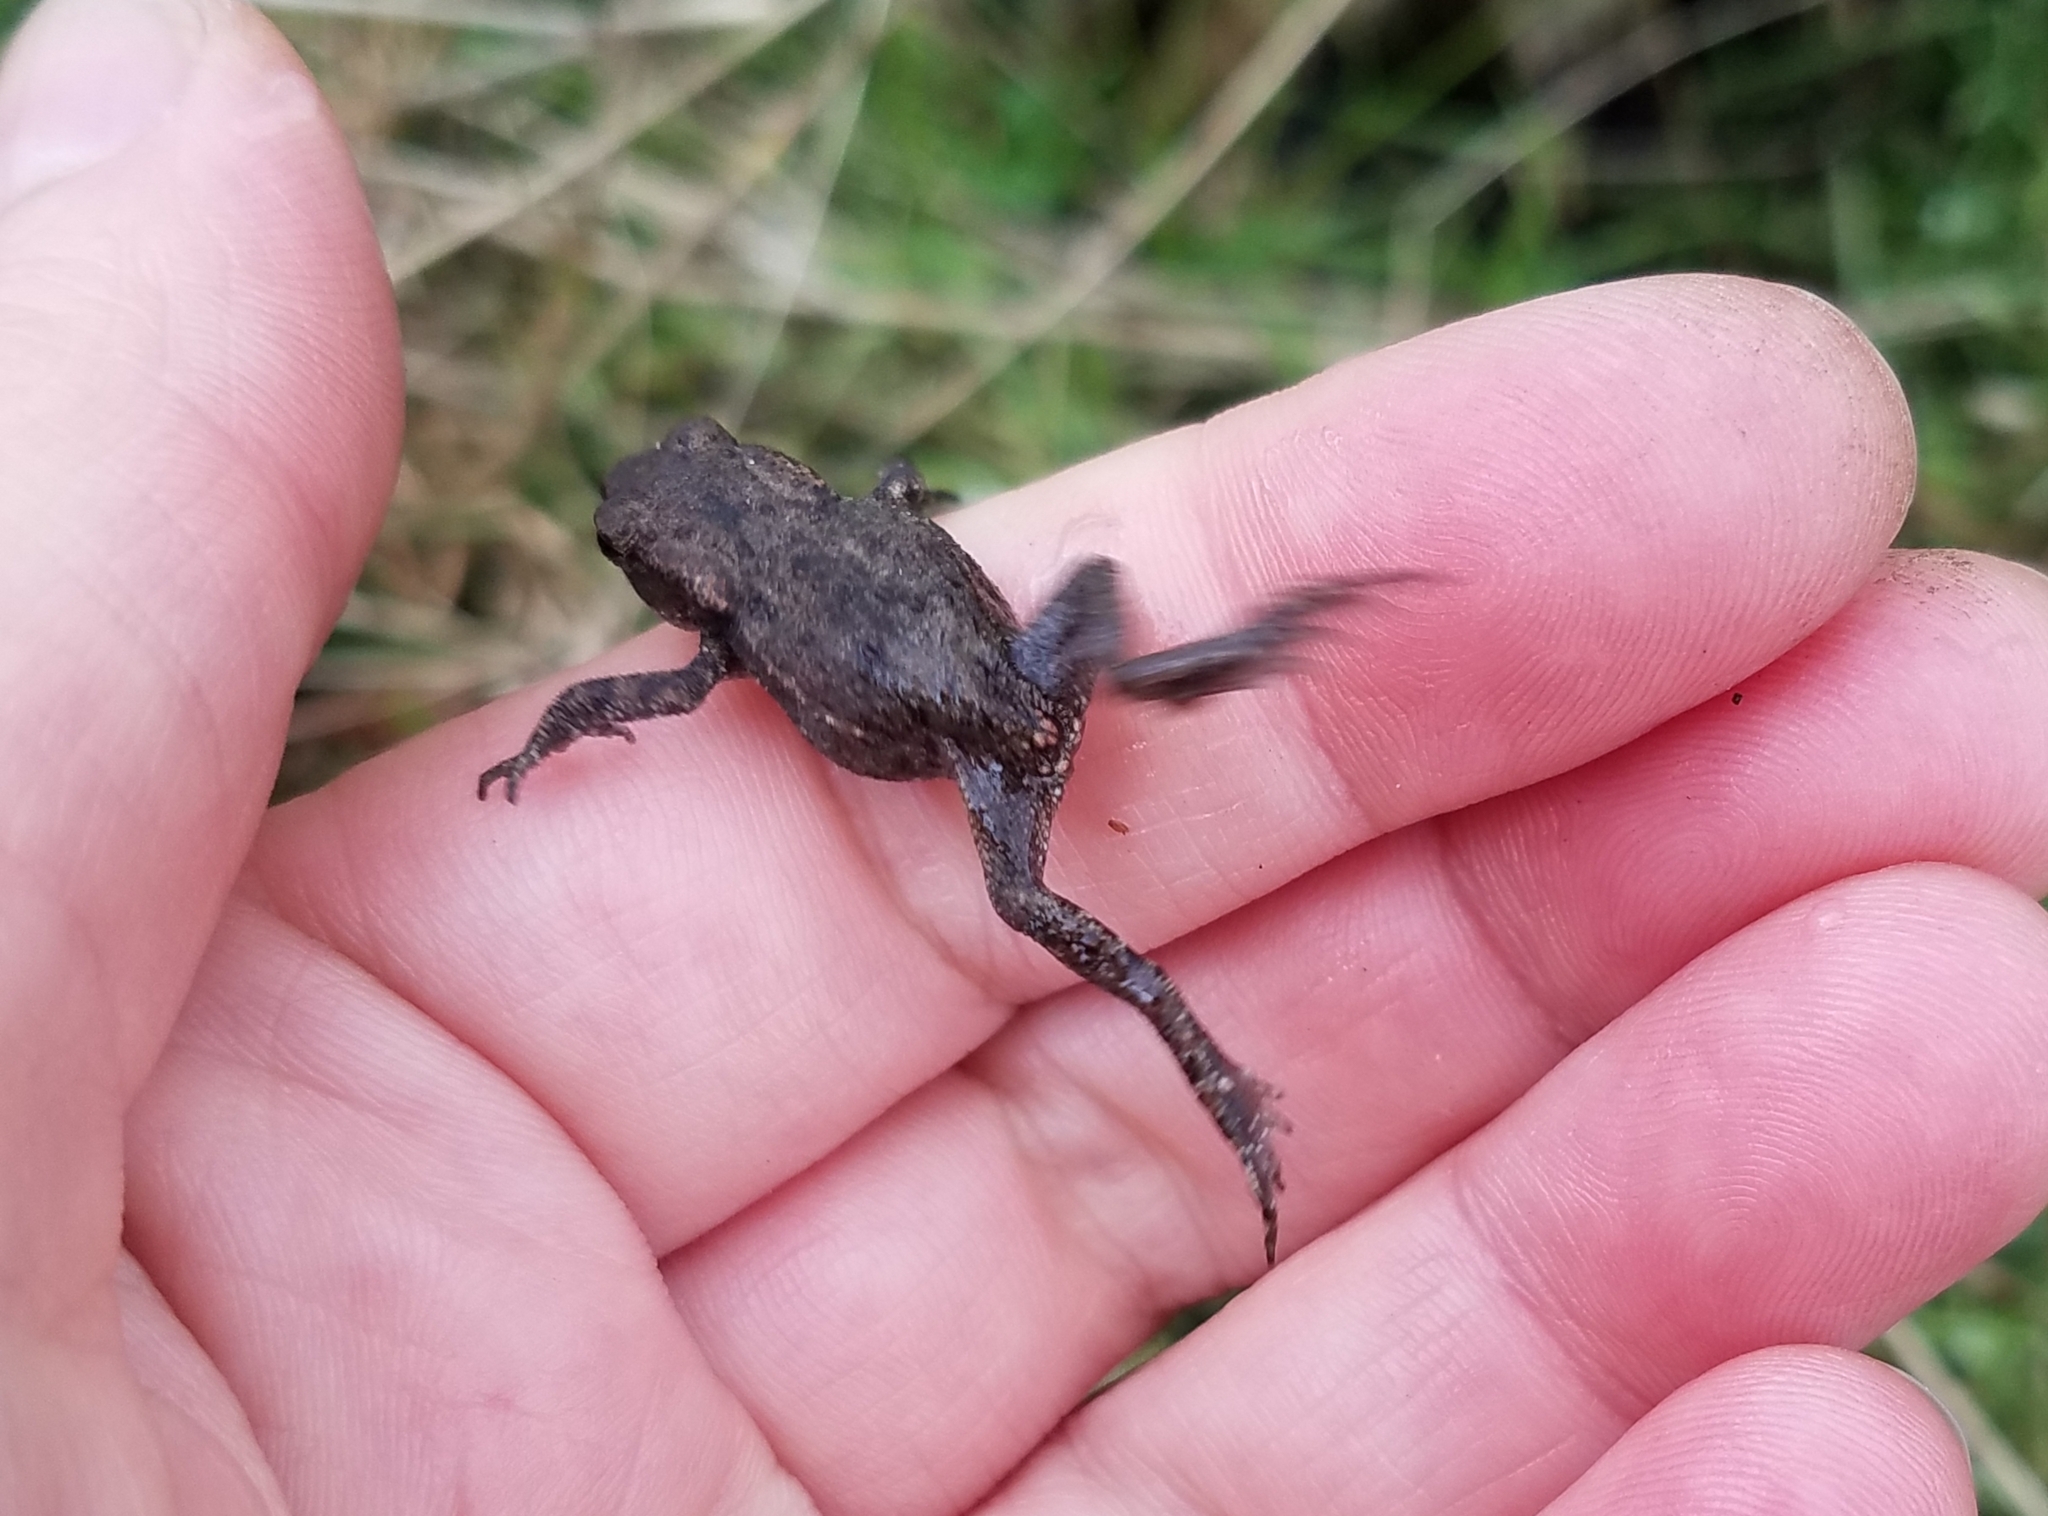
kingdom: Animalia
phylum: Chordata
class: Amphibia
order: Anura
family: Bufonidae
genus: Bufo
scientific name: Bufo bufo
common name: Common toad
